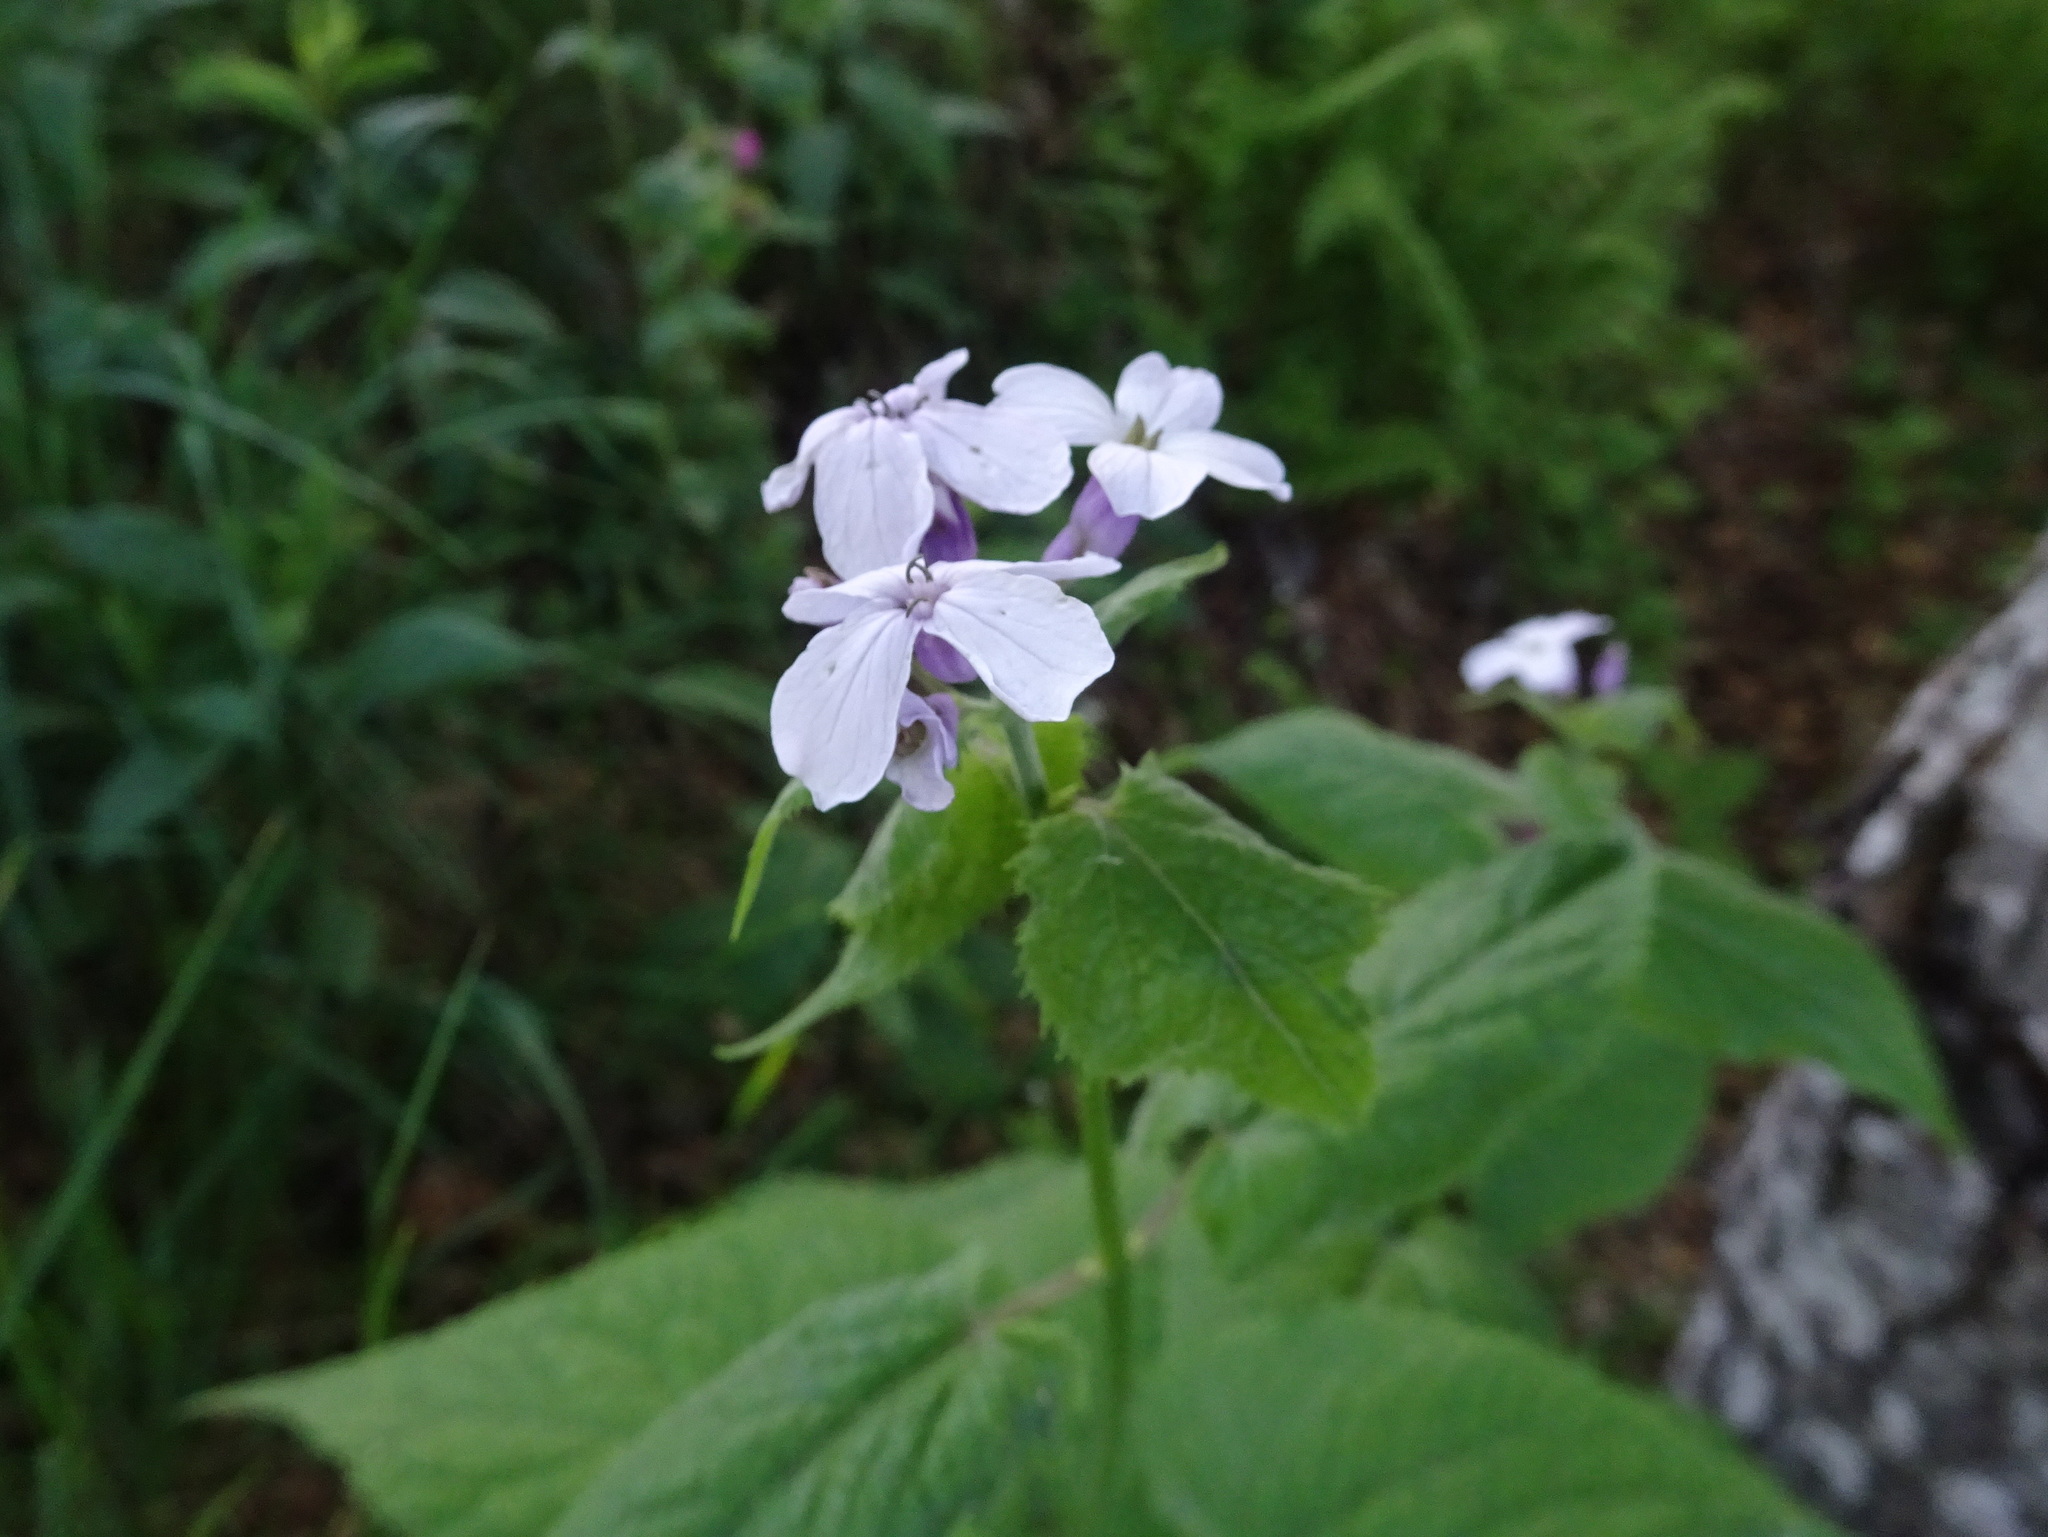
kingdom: Plantae
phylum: Tracheophyta
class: Magnoliopsida
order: Brassicales
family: Brassicaceae
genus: Lunaria
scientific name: Lunaria rediviva
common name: Perennial honesty
